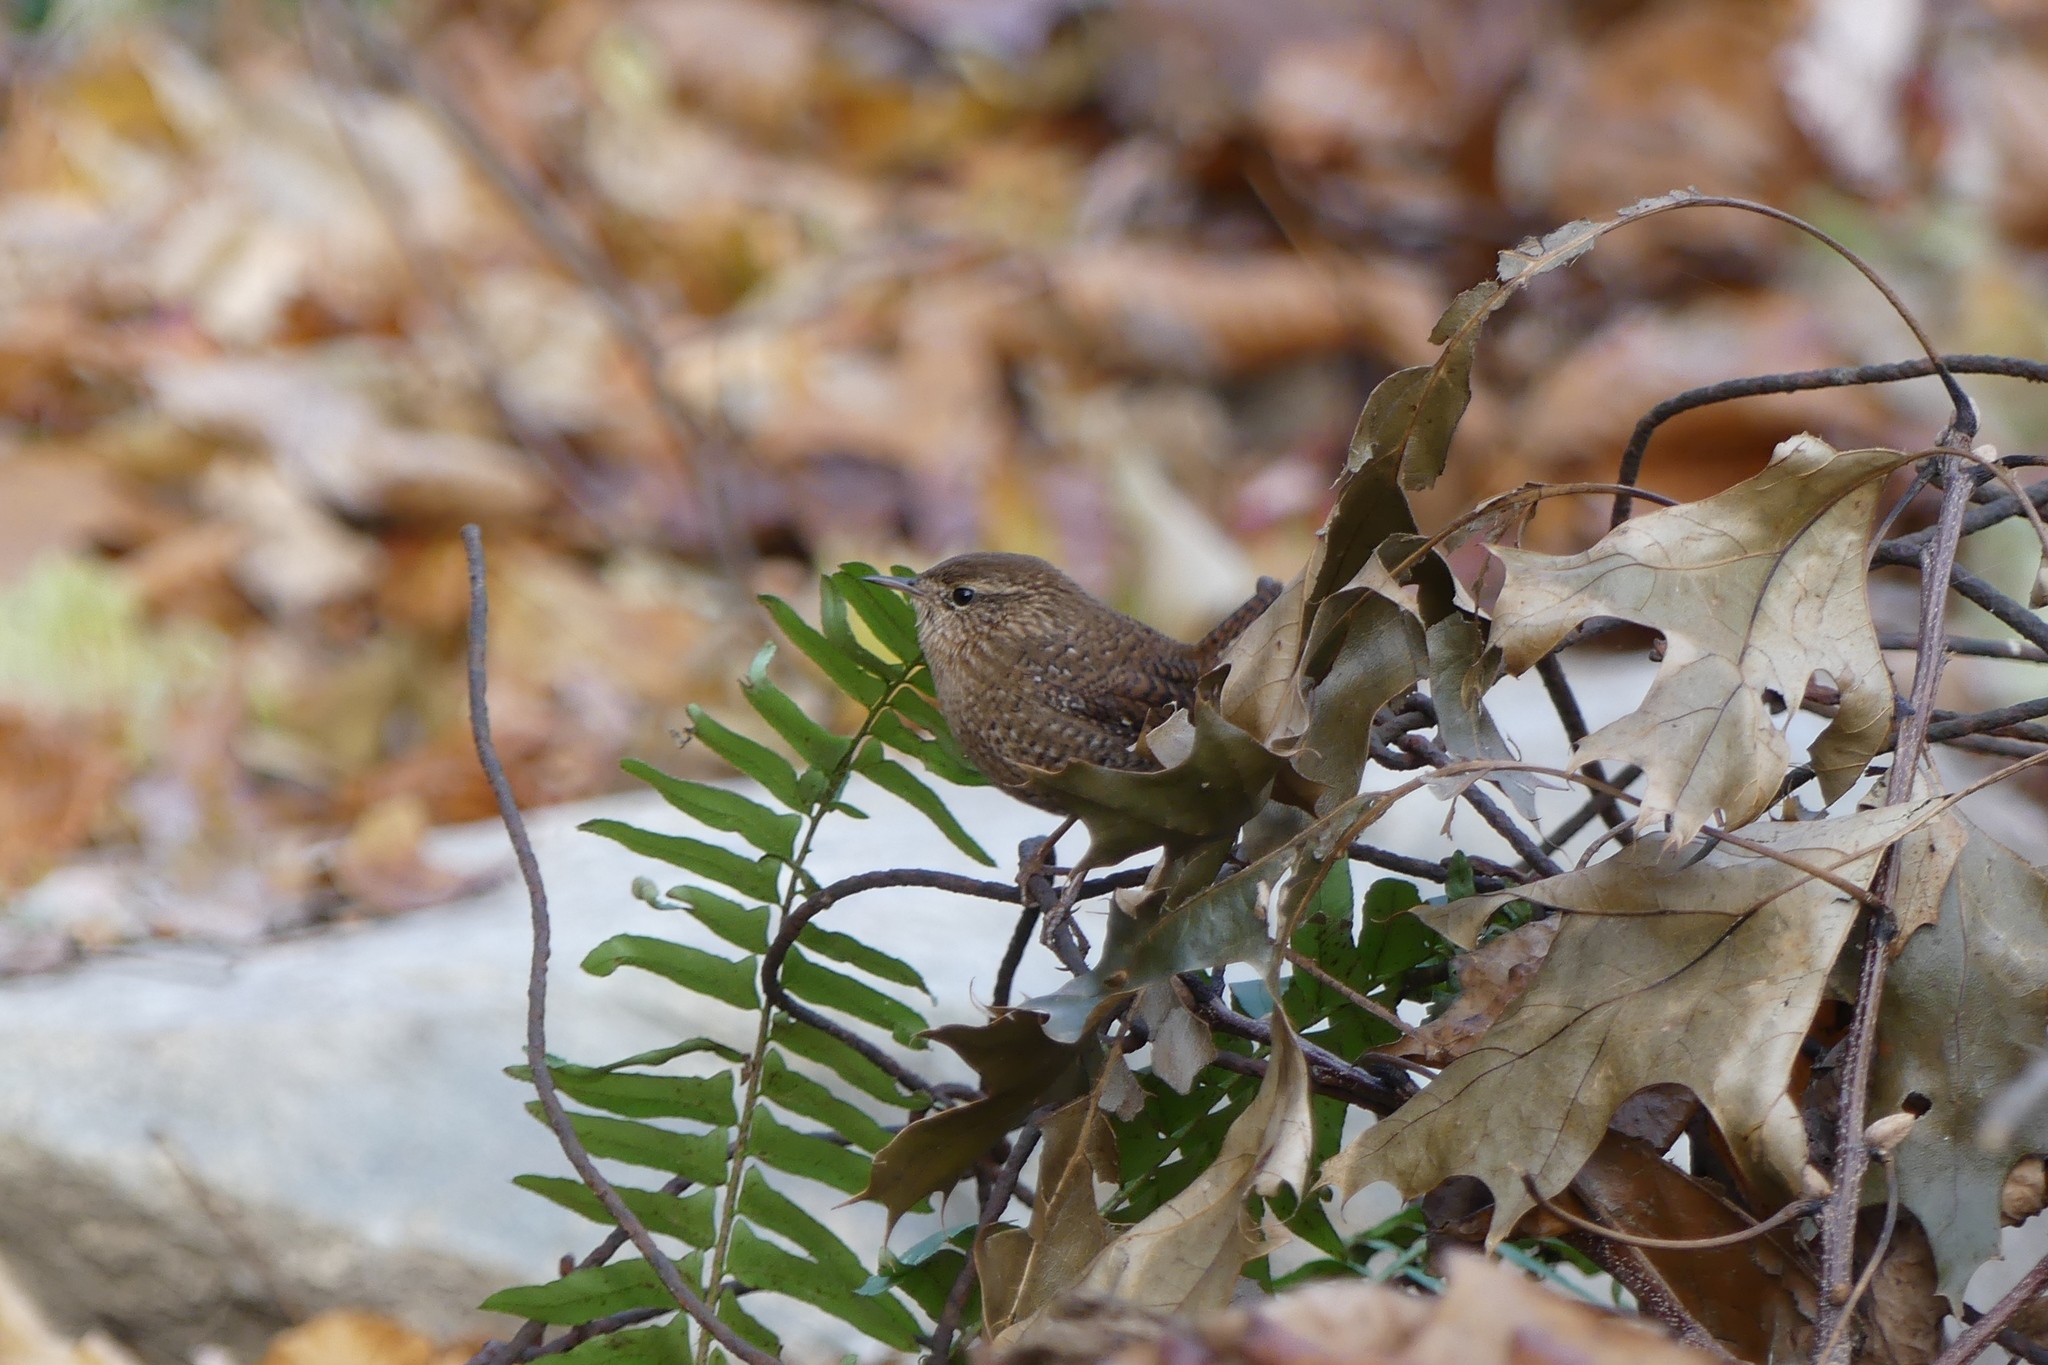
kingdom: Animalia
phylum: Chordata
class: Aves
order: Passeriformes
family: Troglodytidae
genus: Troglodytes
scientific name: Troglodytes hiemalis
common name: Winter wren
